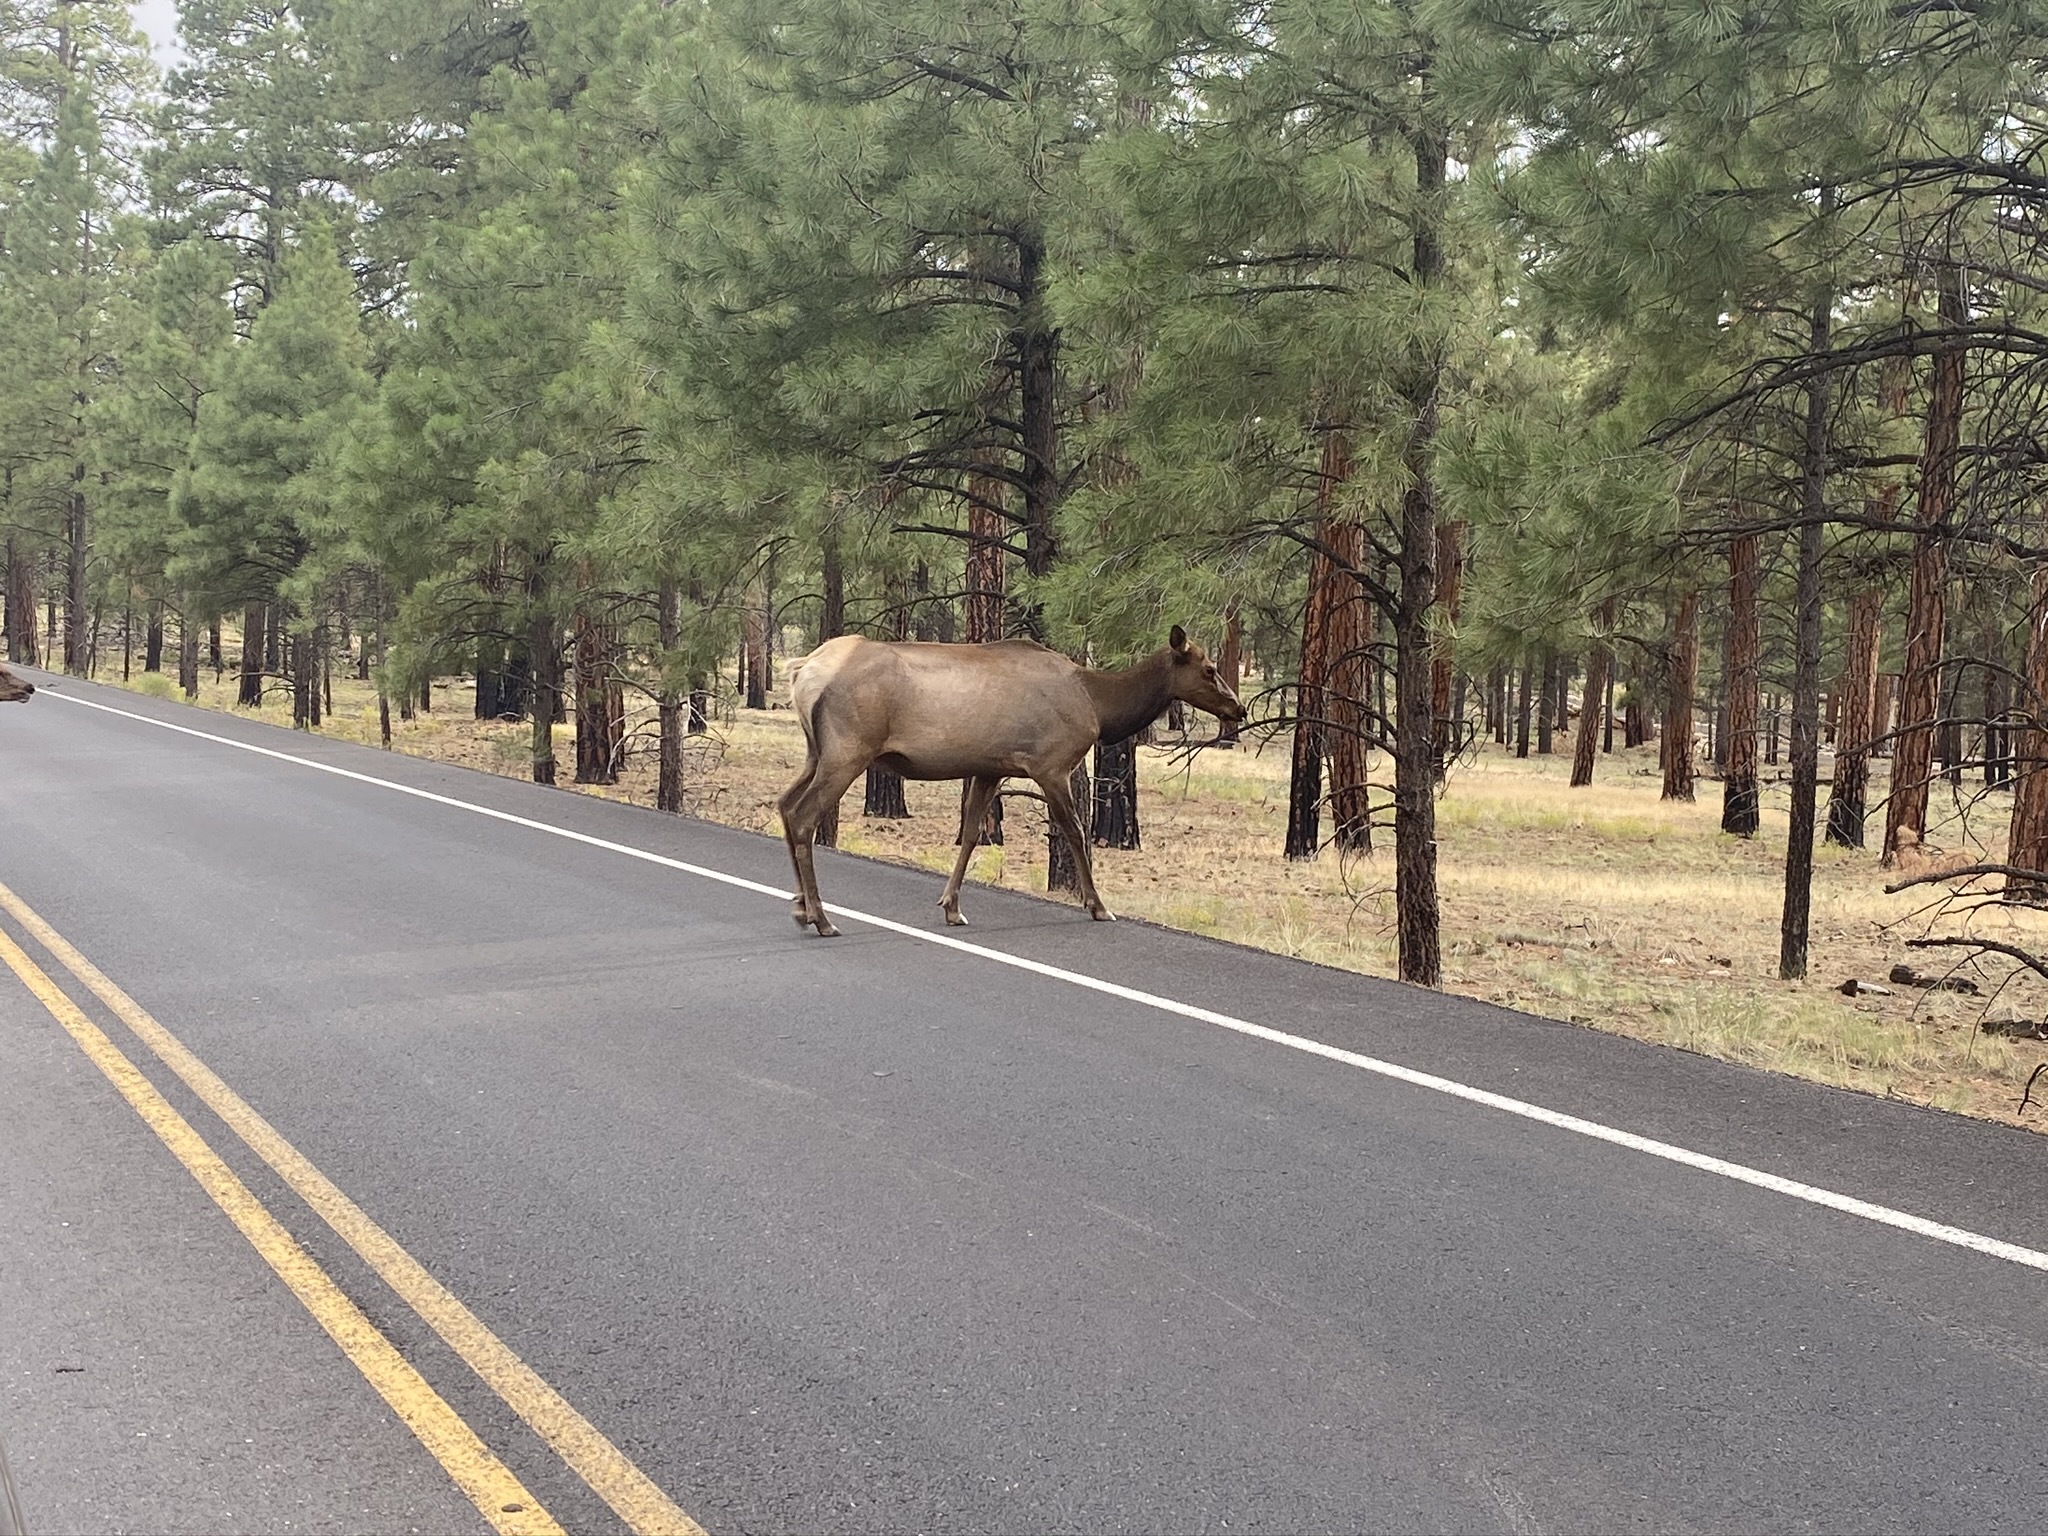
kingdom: Animalia
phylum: Chordata
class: Mammalia
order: Artiodactyla
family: Cervidae
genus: Cervus
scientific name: Cervus elaphus
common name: Red deer
